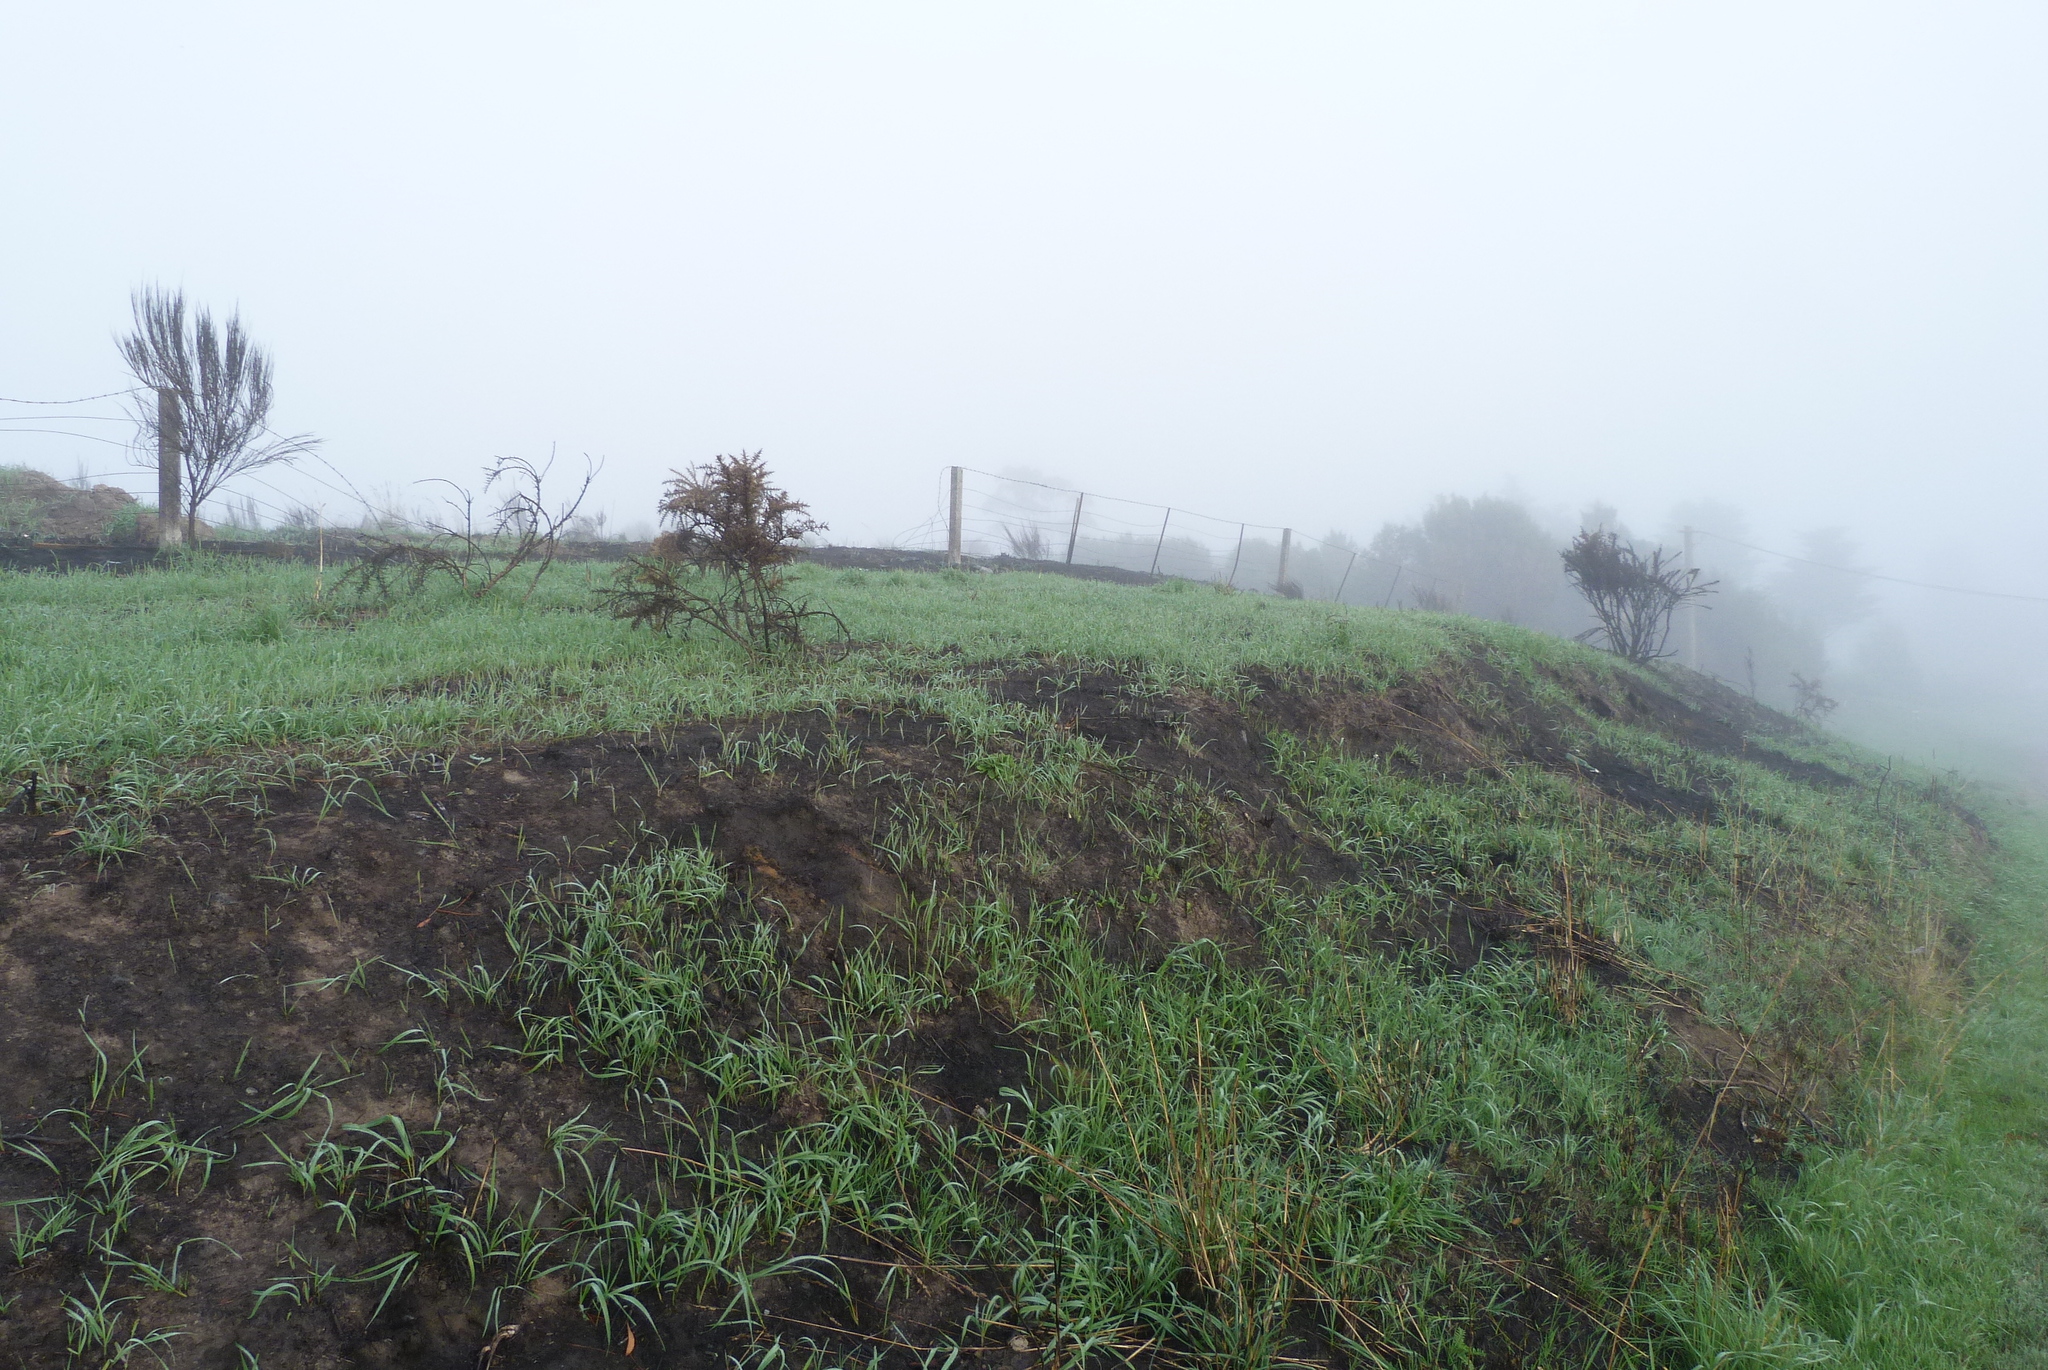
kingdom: Plantae
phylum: Tracheophyta
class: Liliopsida
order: Poales
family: Poaceae
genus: Dactylis
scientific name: Dactylis glomerata
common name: Orchardgrass
